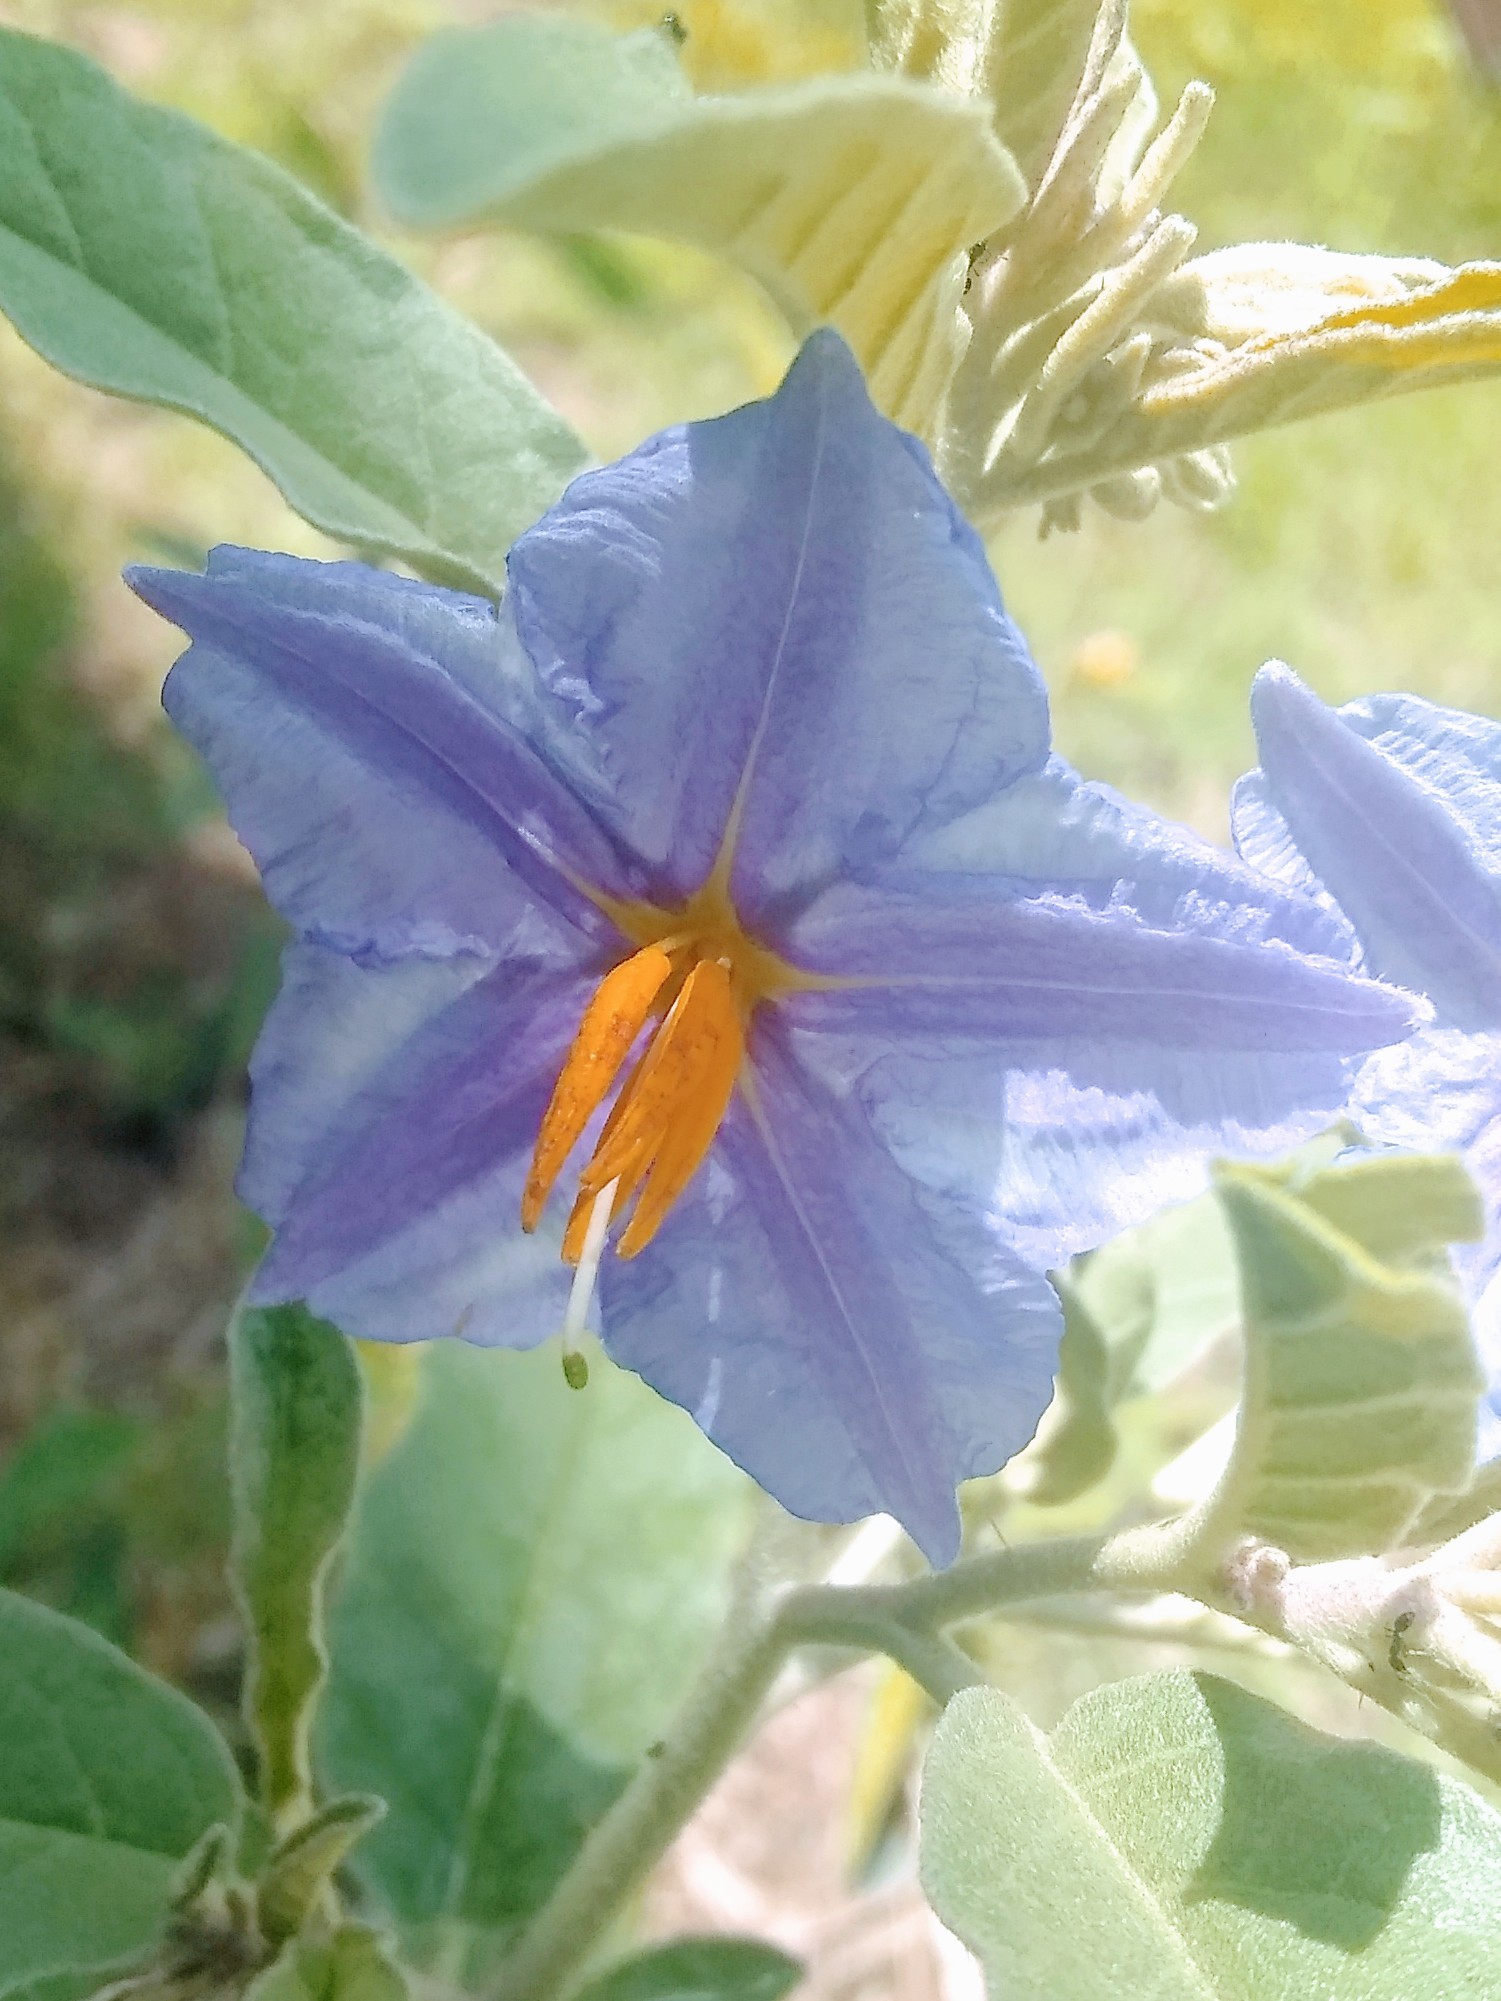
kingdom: Plantae
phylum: Tracheophyta
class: Magnoliopsida
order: Solanales
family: Solanaceae
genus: Solanum
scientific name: Solanum elaeagnifolium
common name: Silverleaf nightshade
